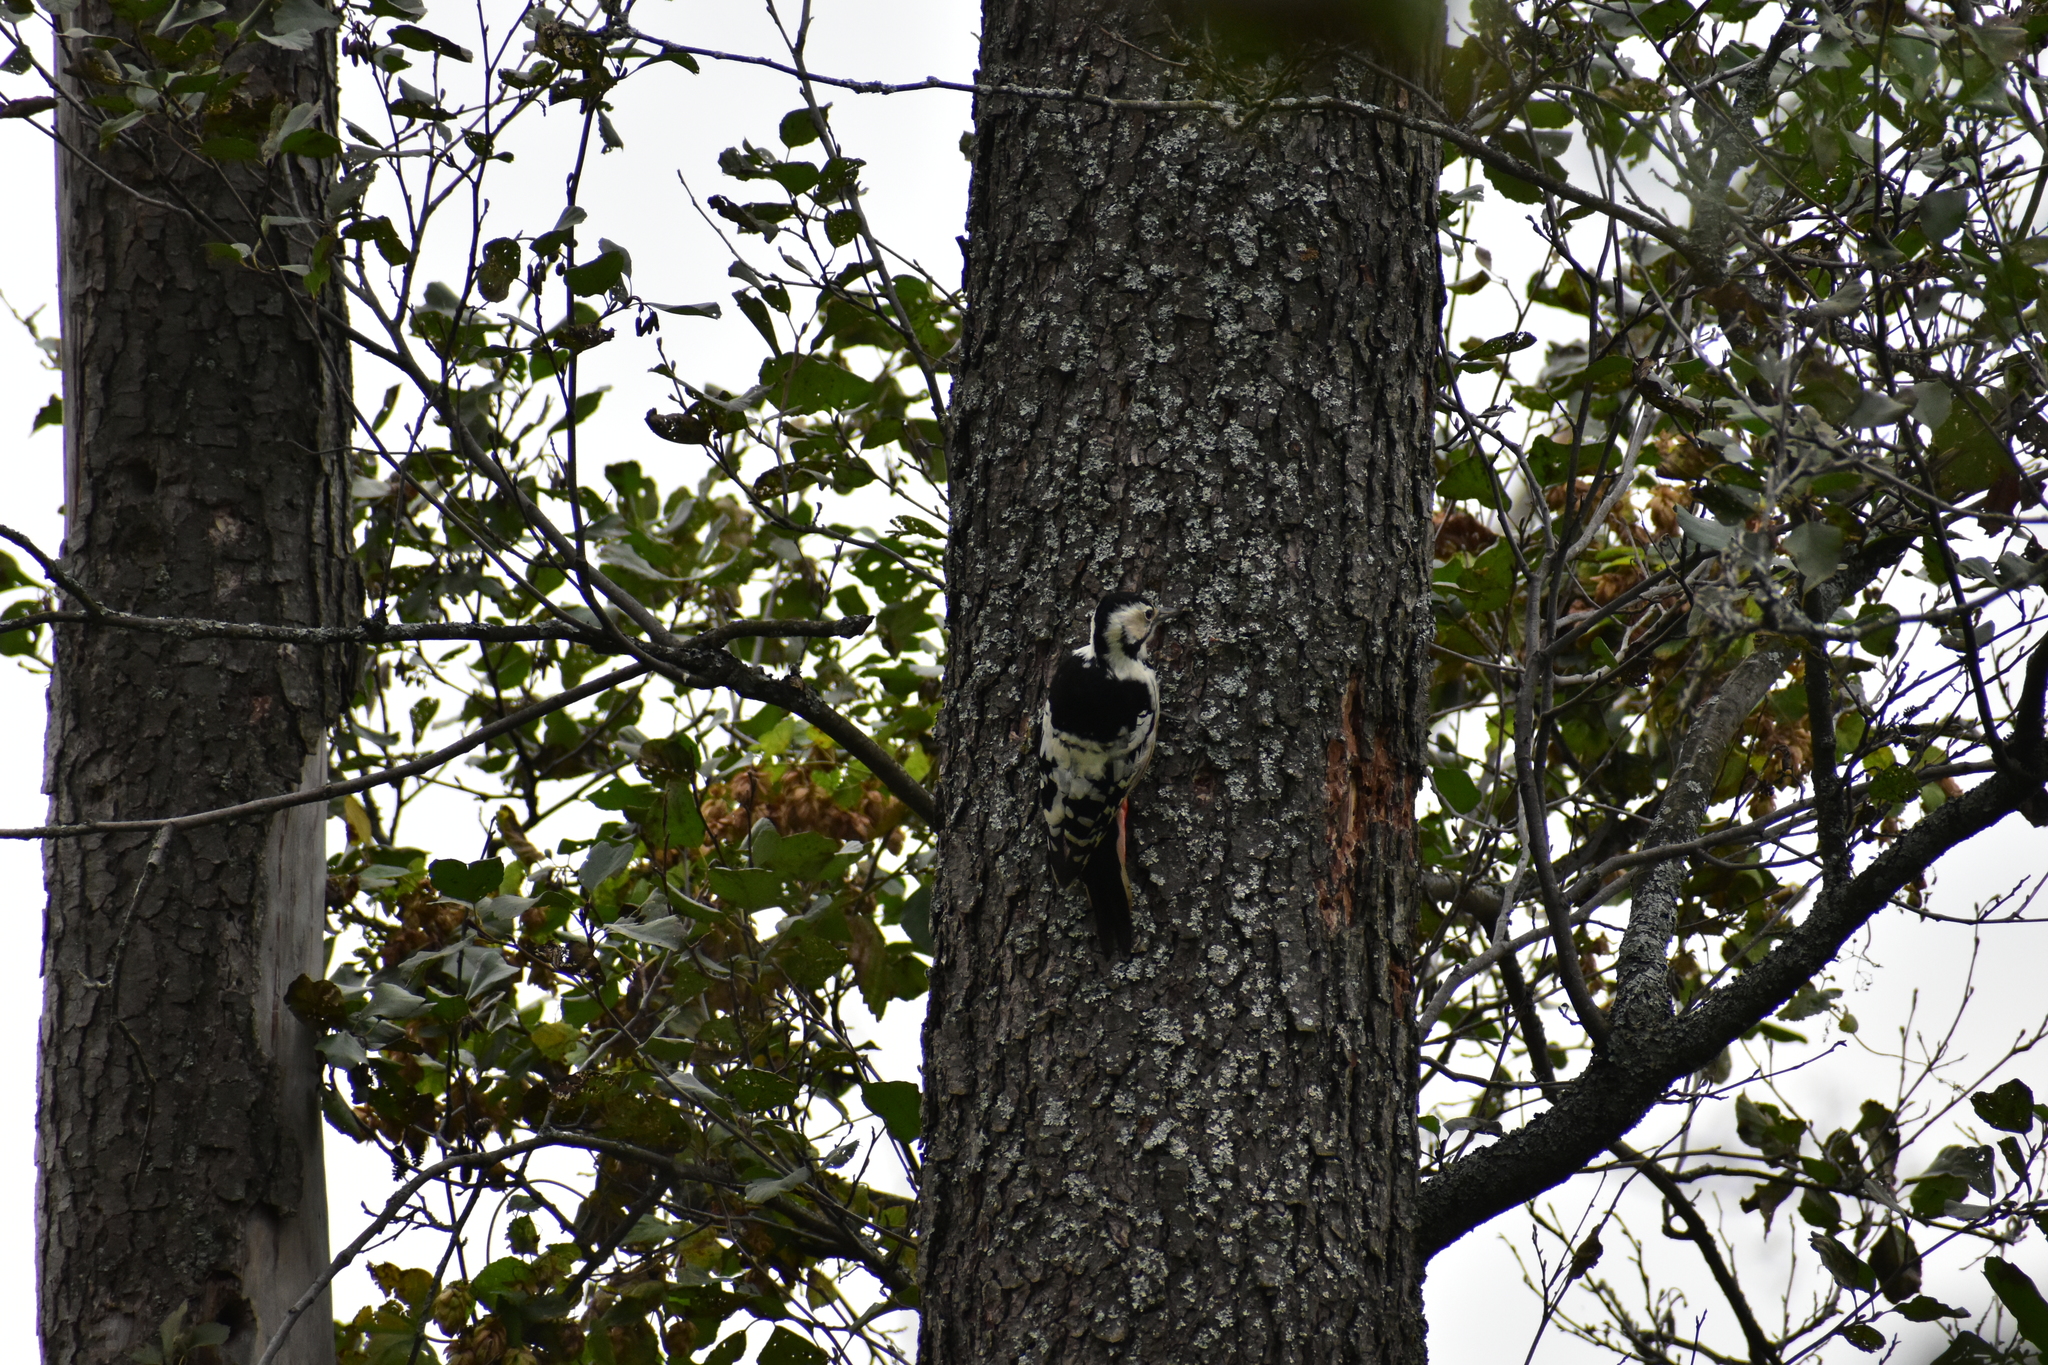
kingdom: Animalia
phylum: Chordata
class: Aves
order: Piciformes
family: Picidae
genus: Dendrocopos
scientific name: Dendrocopos leucotos
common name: White-backed woodpecker
